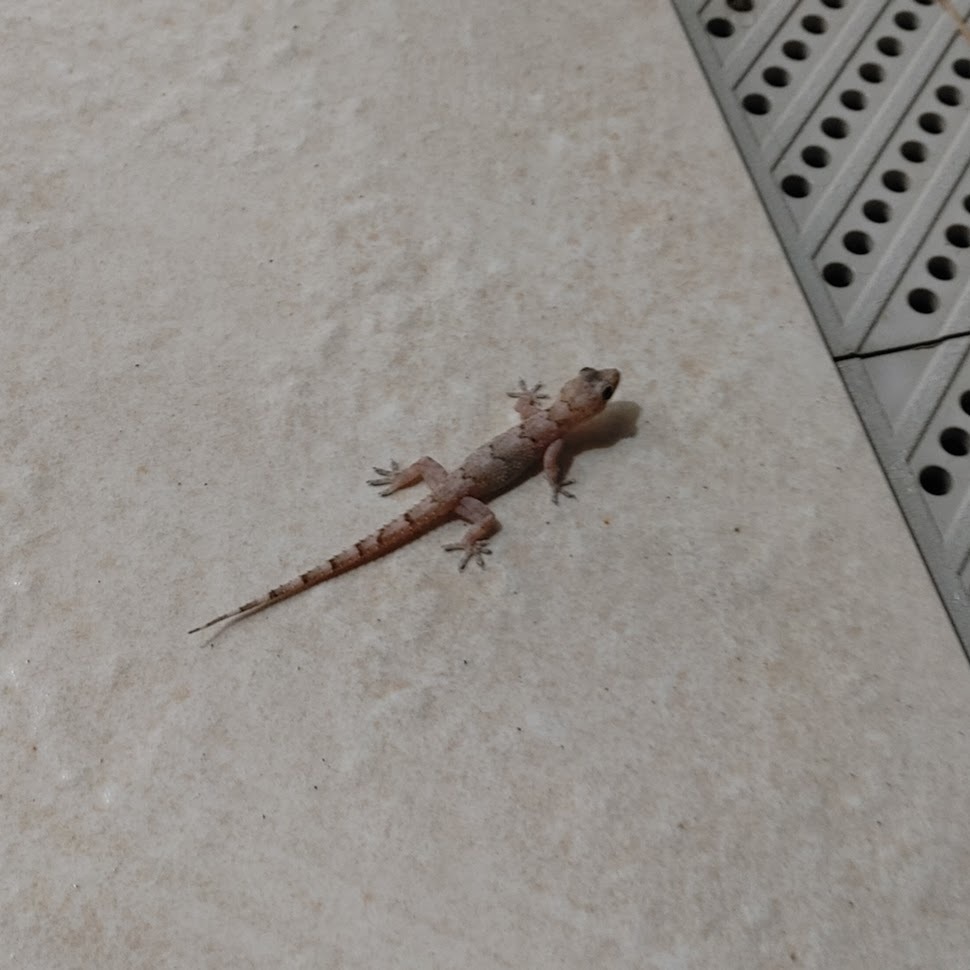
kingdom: Animalia
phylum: Chordata
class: Squamata
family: Gekkonidae
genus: Hemidactylus
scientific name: Hemidactylus mabouia
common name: House gecko
